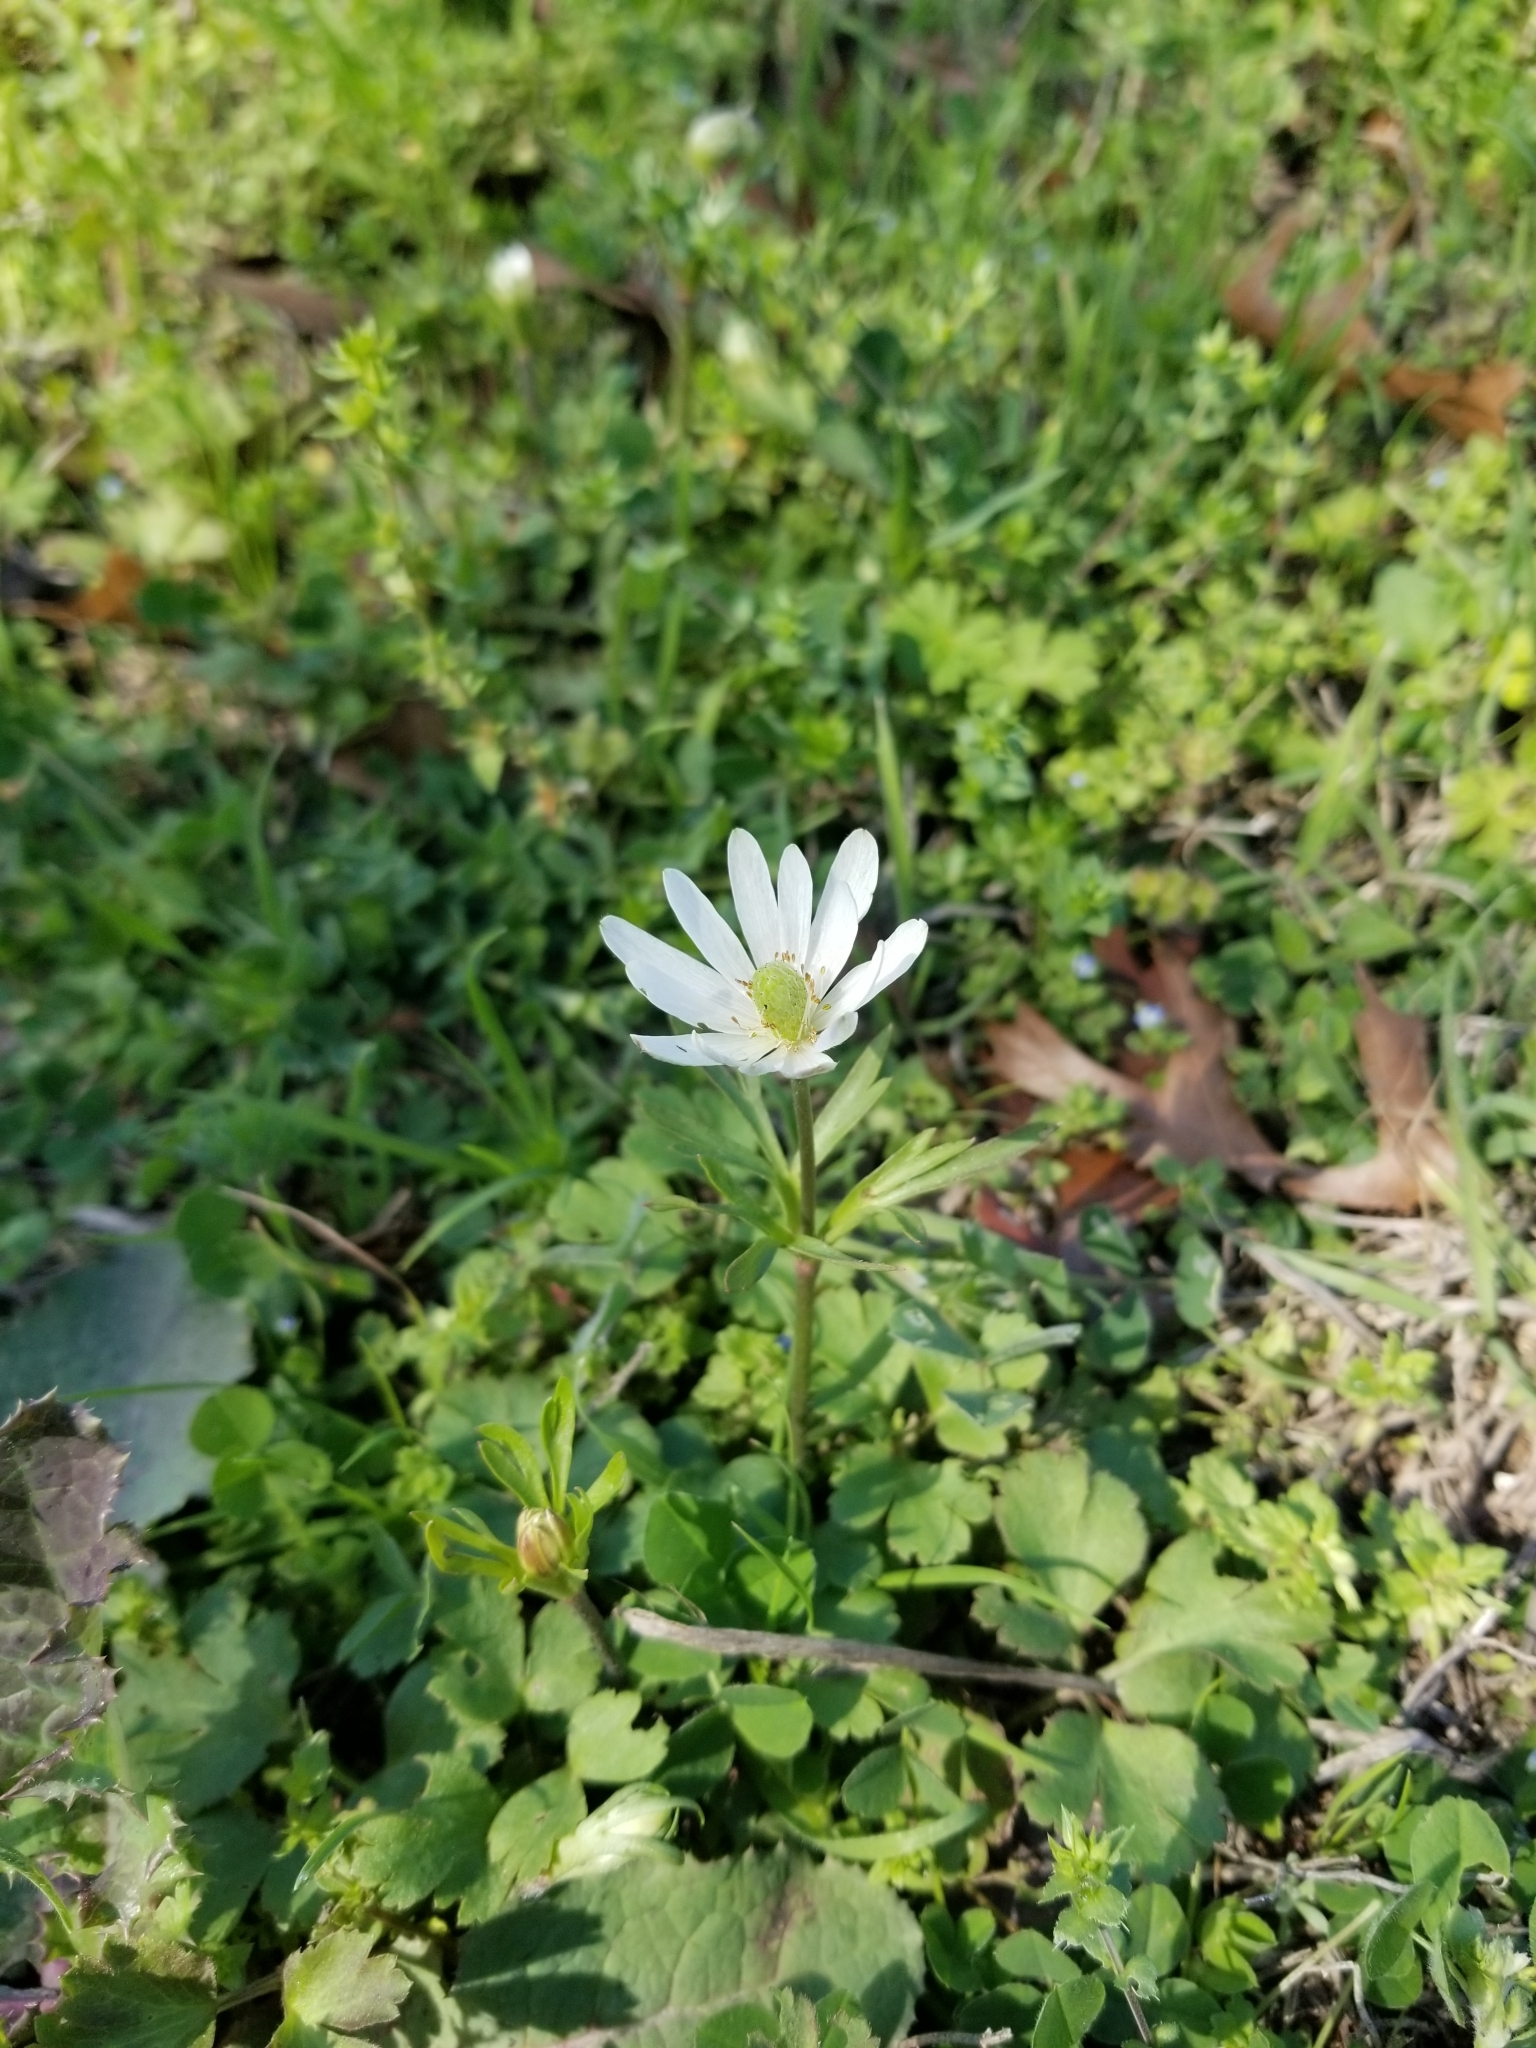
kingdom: Plantae
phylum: Tracheophyta
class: Magnoliopsida
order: Ranunculales
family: Ranunculaceae
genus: Anemone
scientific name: Anemone berlandieri
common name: Ten-petal anemone
